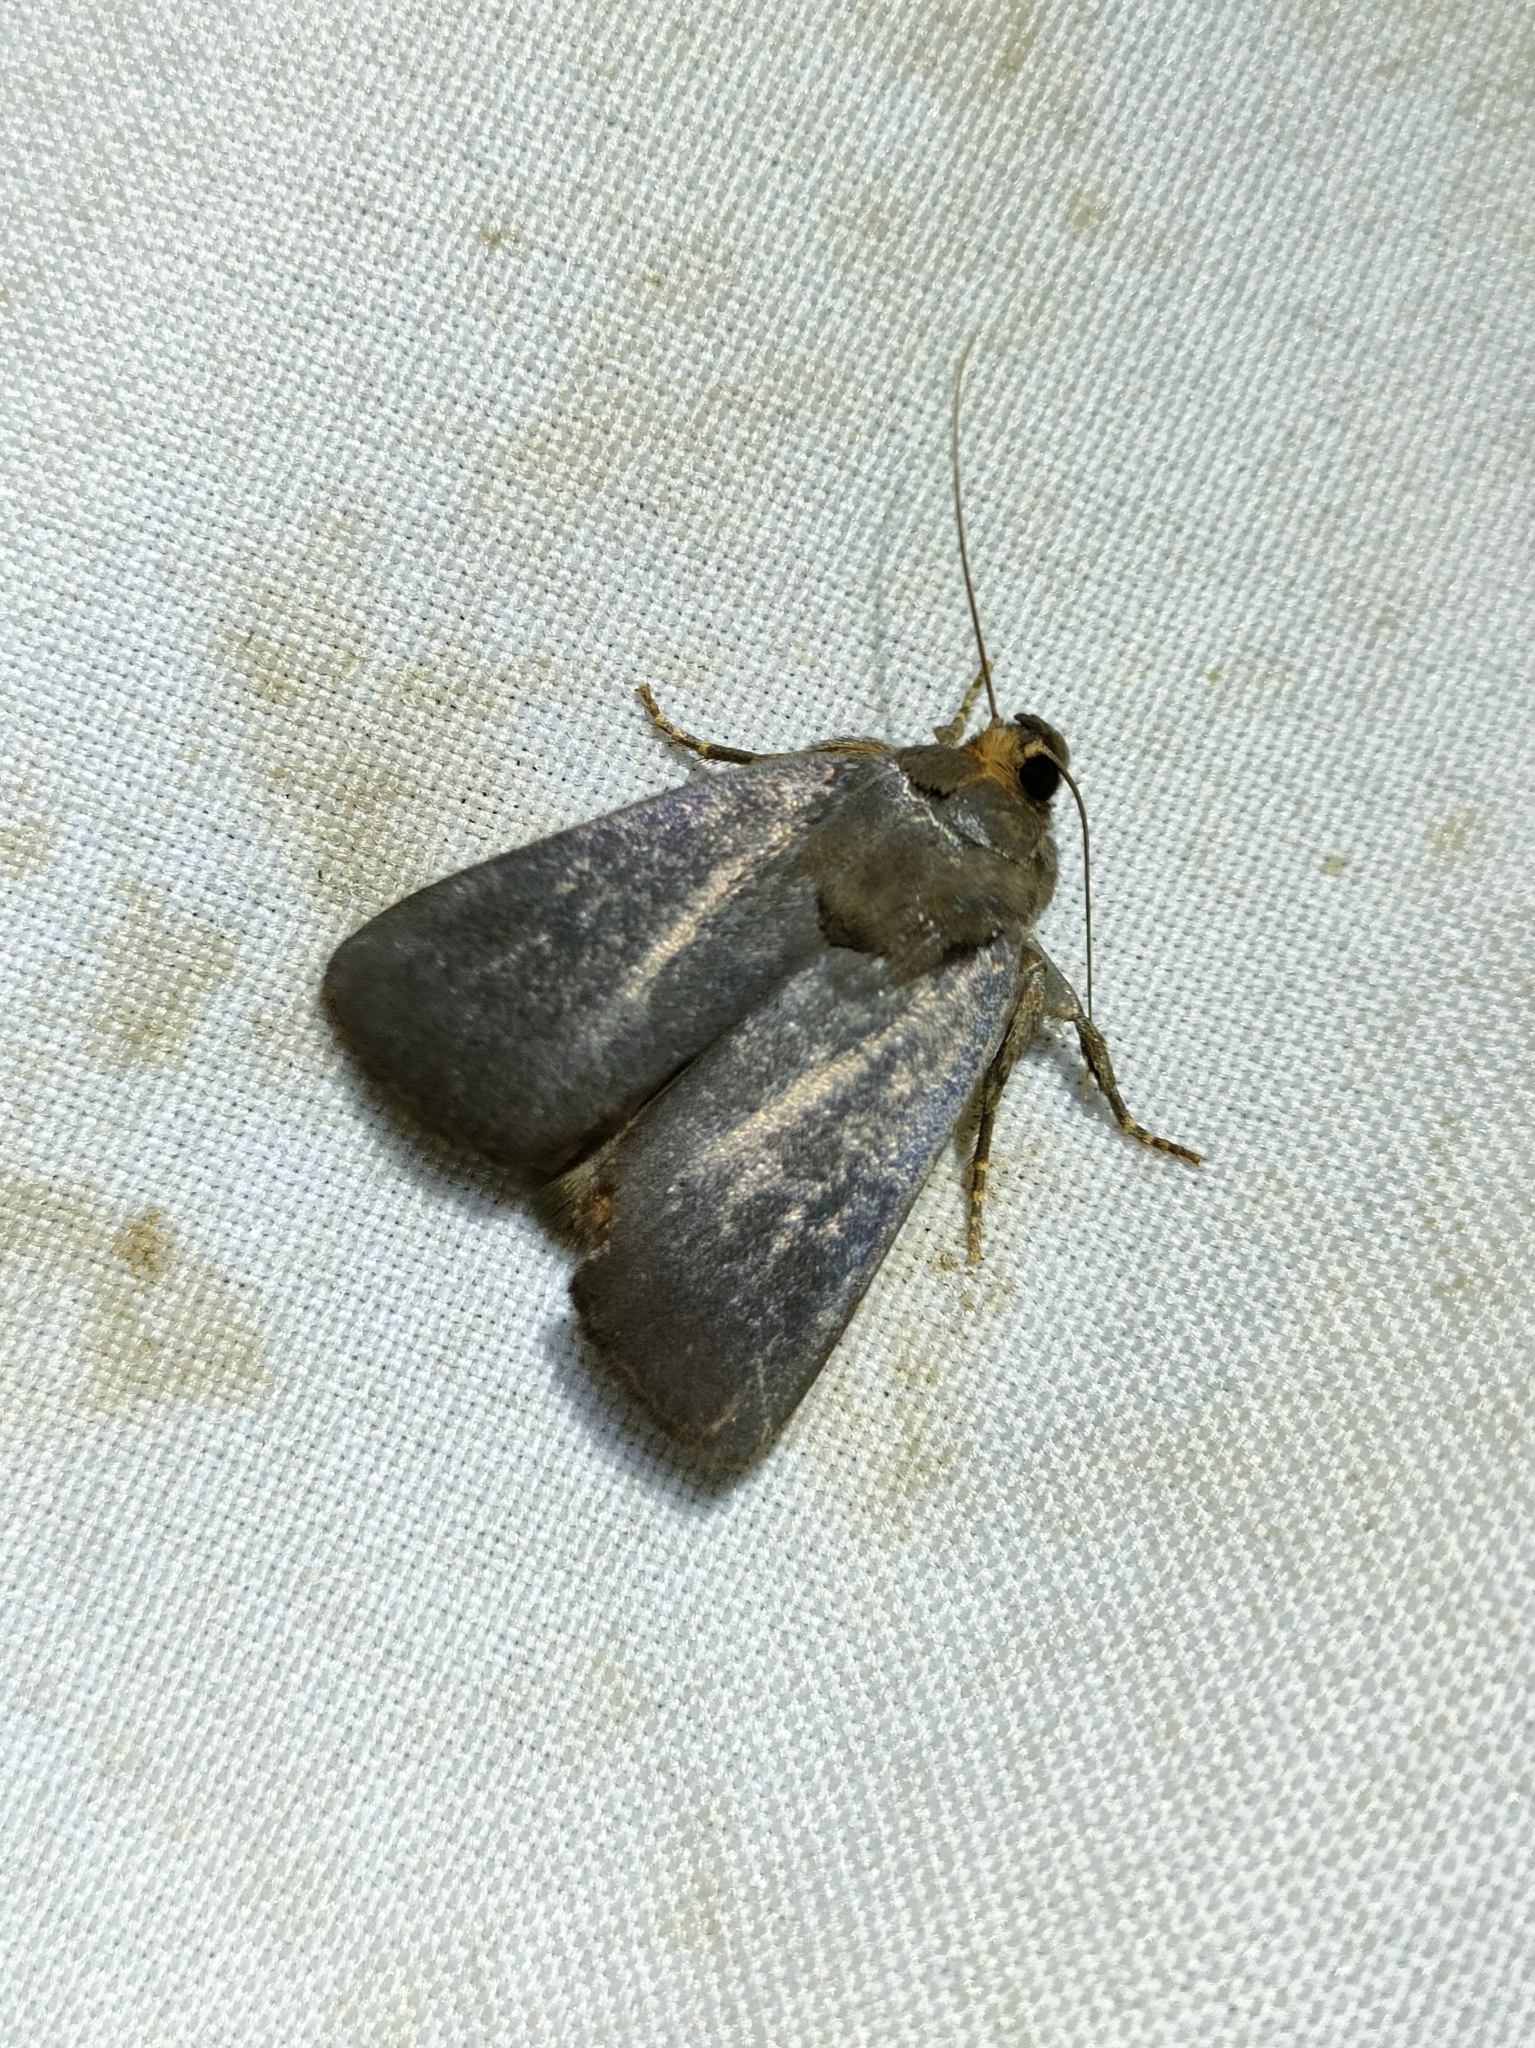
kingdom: Animalia
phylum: Arthropoda
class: Insecta
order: Lepidoptera
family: Noctuidae
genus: Amphipyra
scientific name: Amphipyra livida
